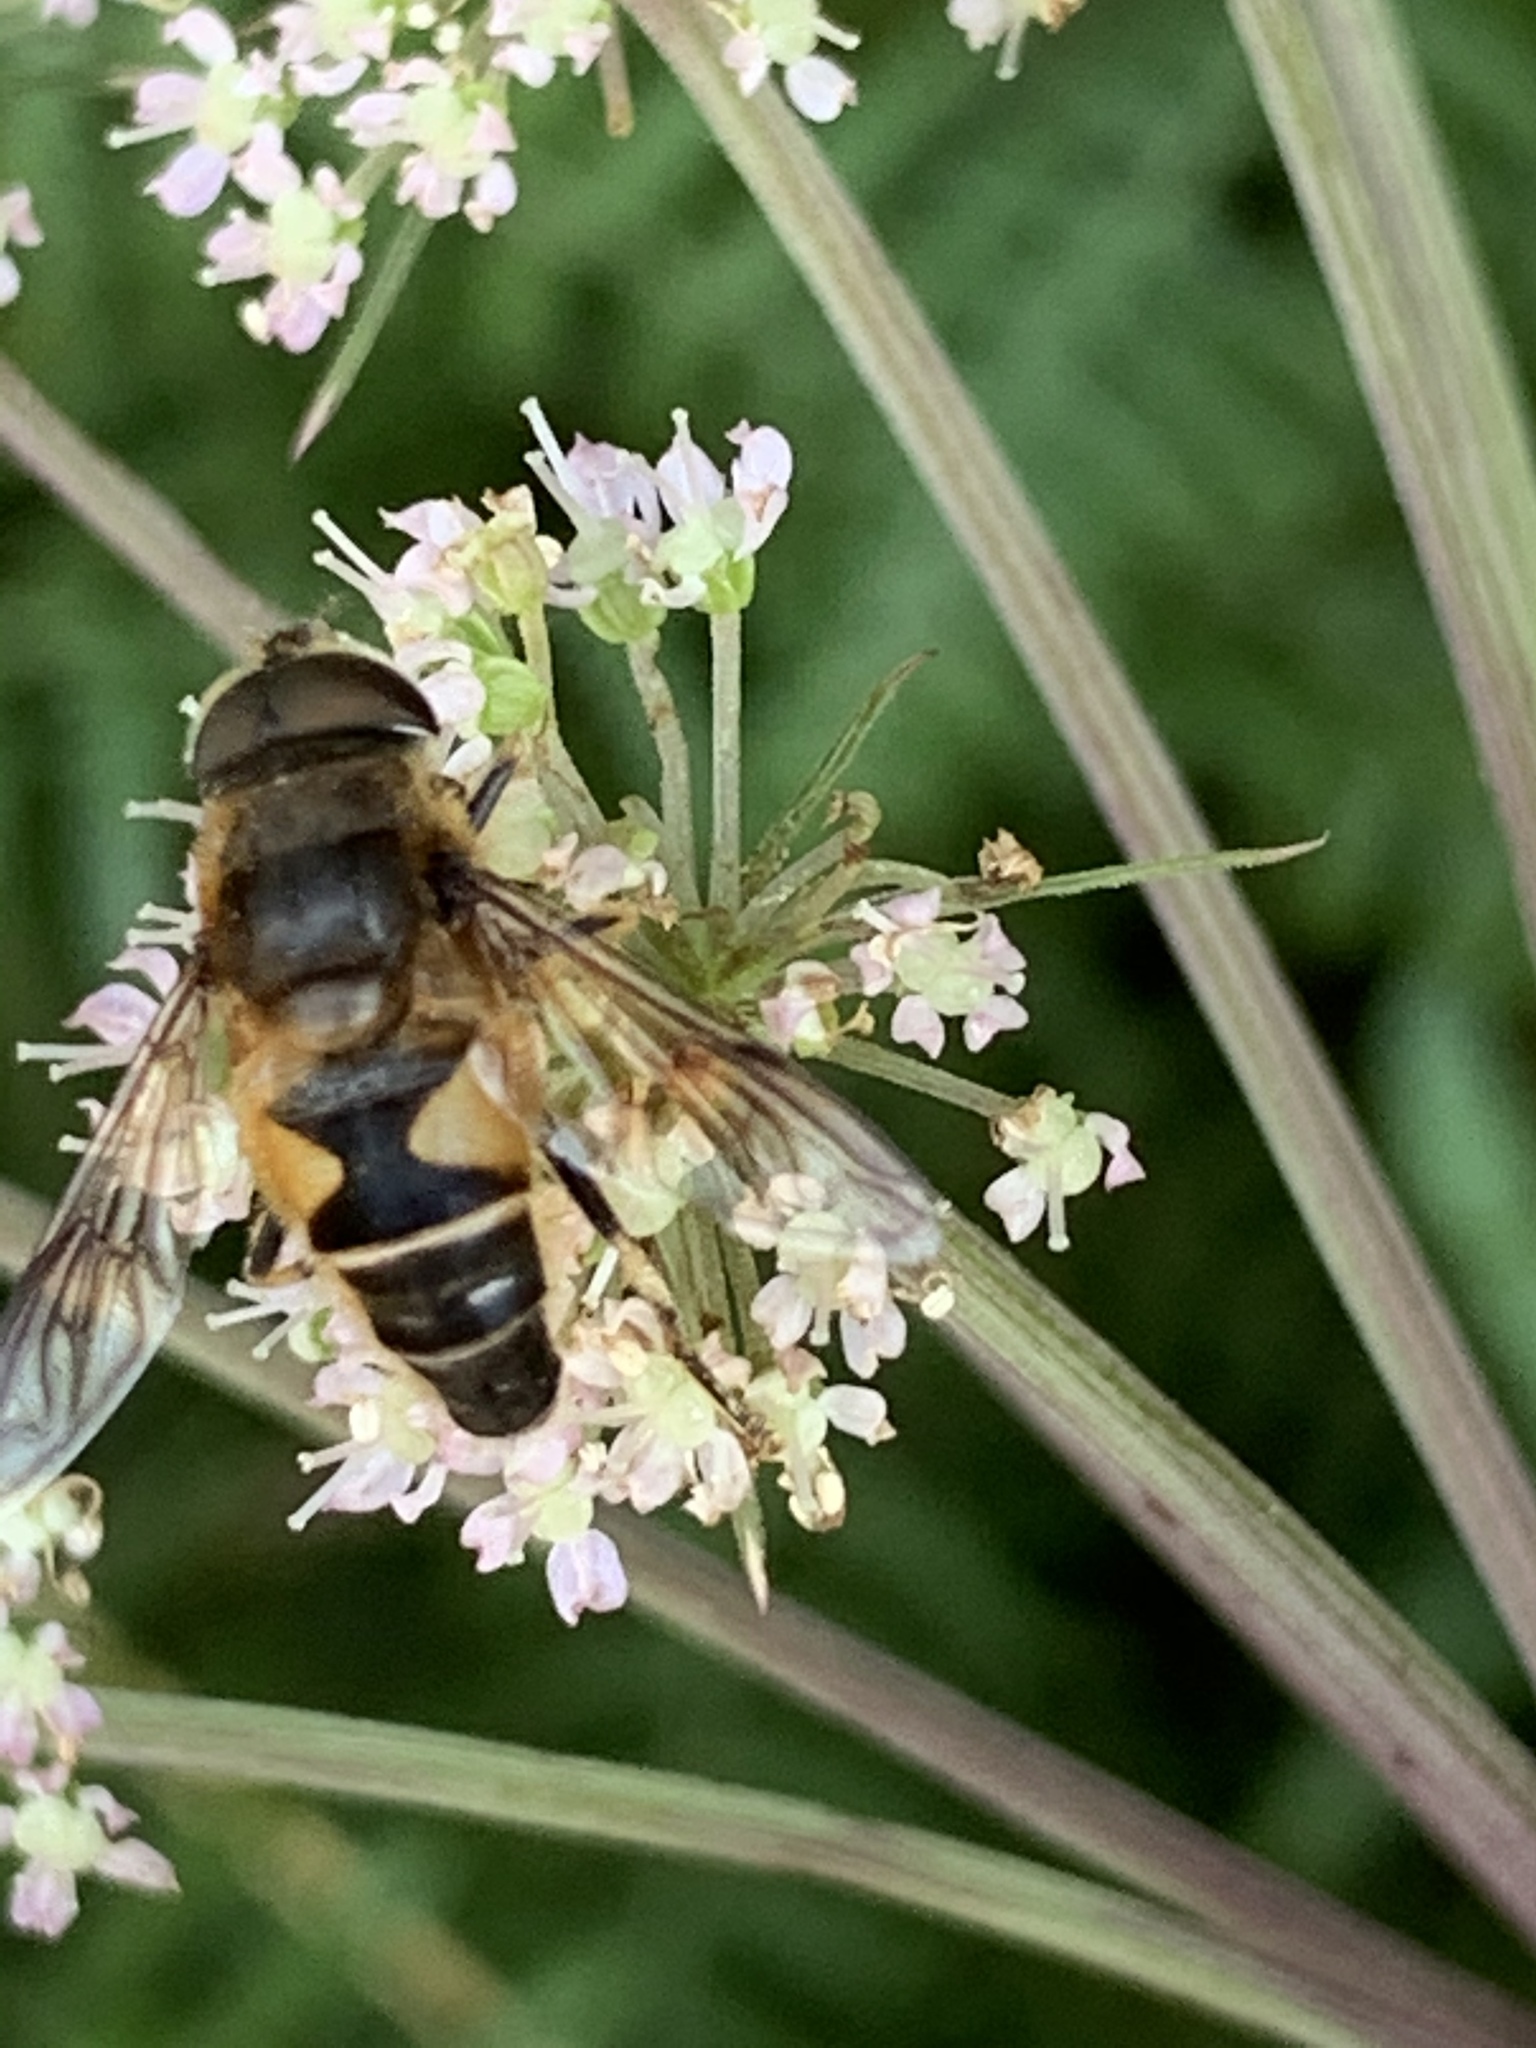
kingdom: Animalia
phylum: Arthropoda
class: Insecta
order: Diptera
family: Syrphidae
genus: Eristalis
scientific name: Eristalis pertinax
